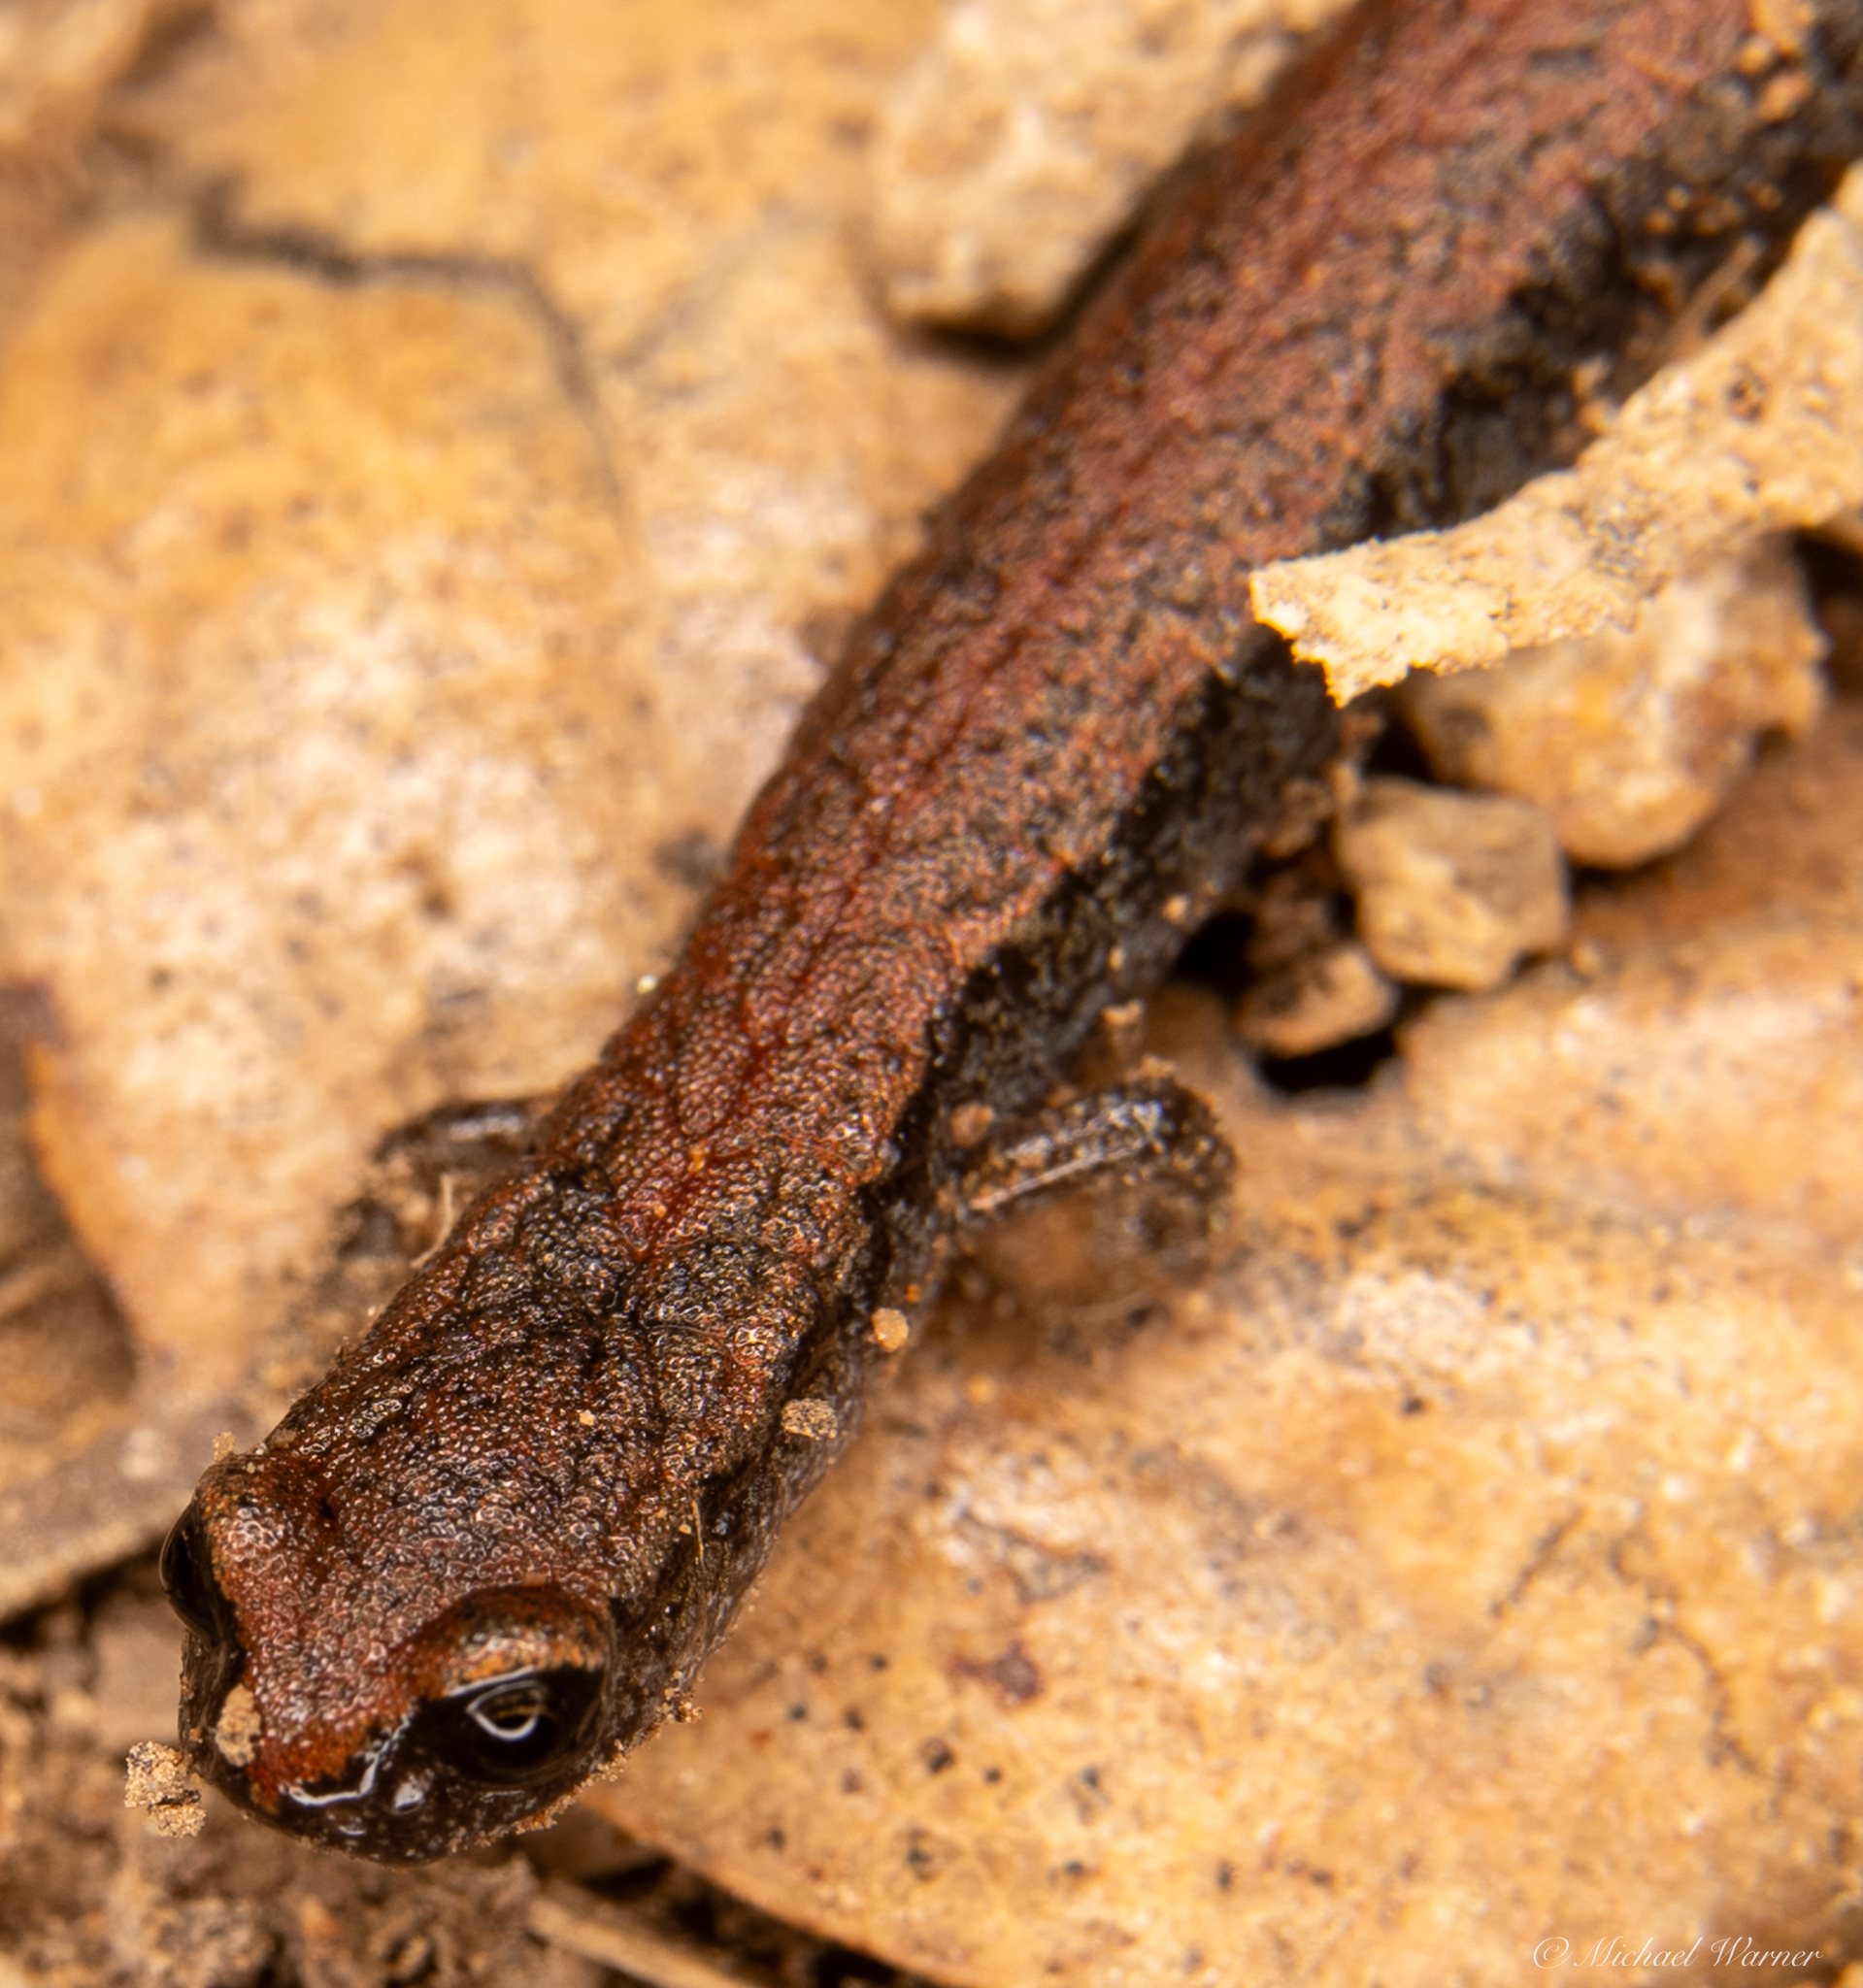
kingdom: Animalia
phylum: Chordata
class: Amphibia
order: Caudata
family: Plethodontidae
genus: Batrachoseps
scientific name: Batrachoseps attenuatus
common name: California slender salamander
